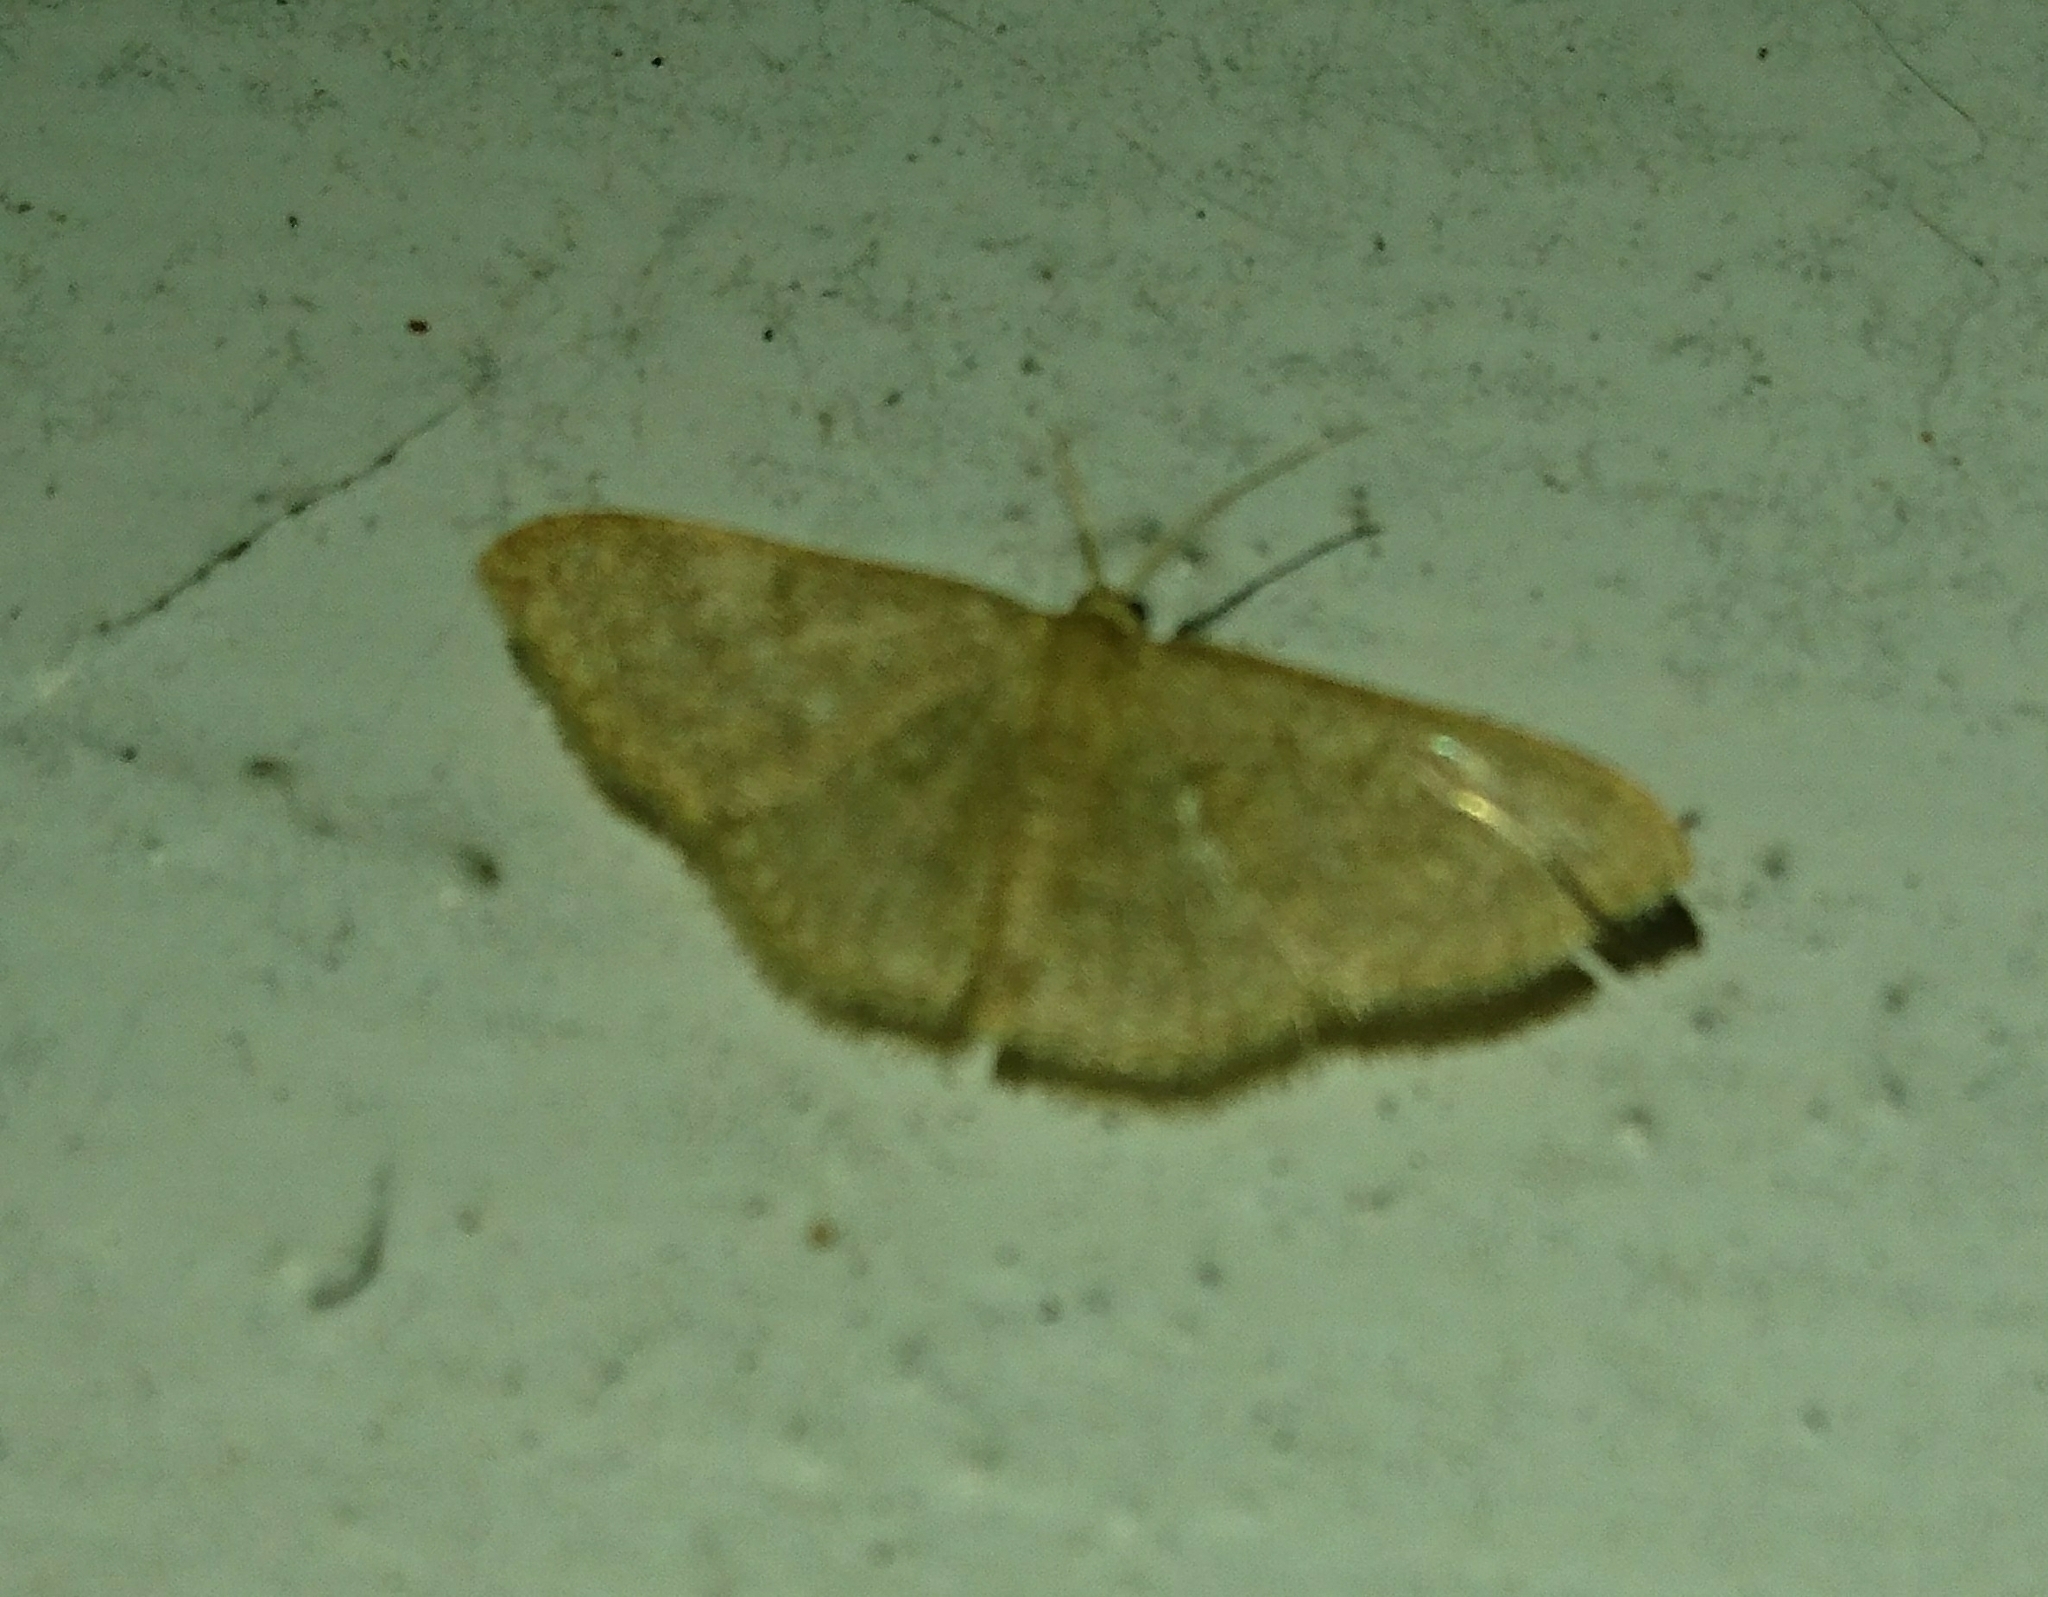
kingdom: Animalia
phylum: Arthropoda
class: Insecta
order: Lepidoptera
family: Geometridae
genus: Pleuroprucha
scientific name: Pleuroprucha insulsaria
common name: Common tan wave
